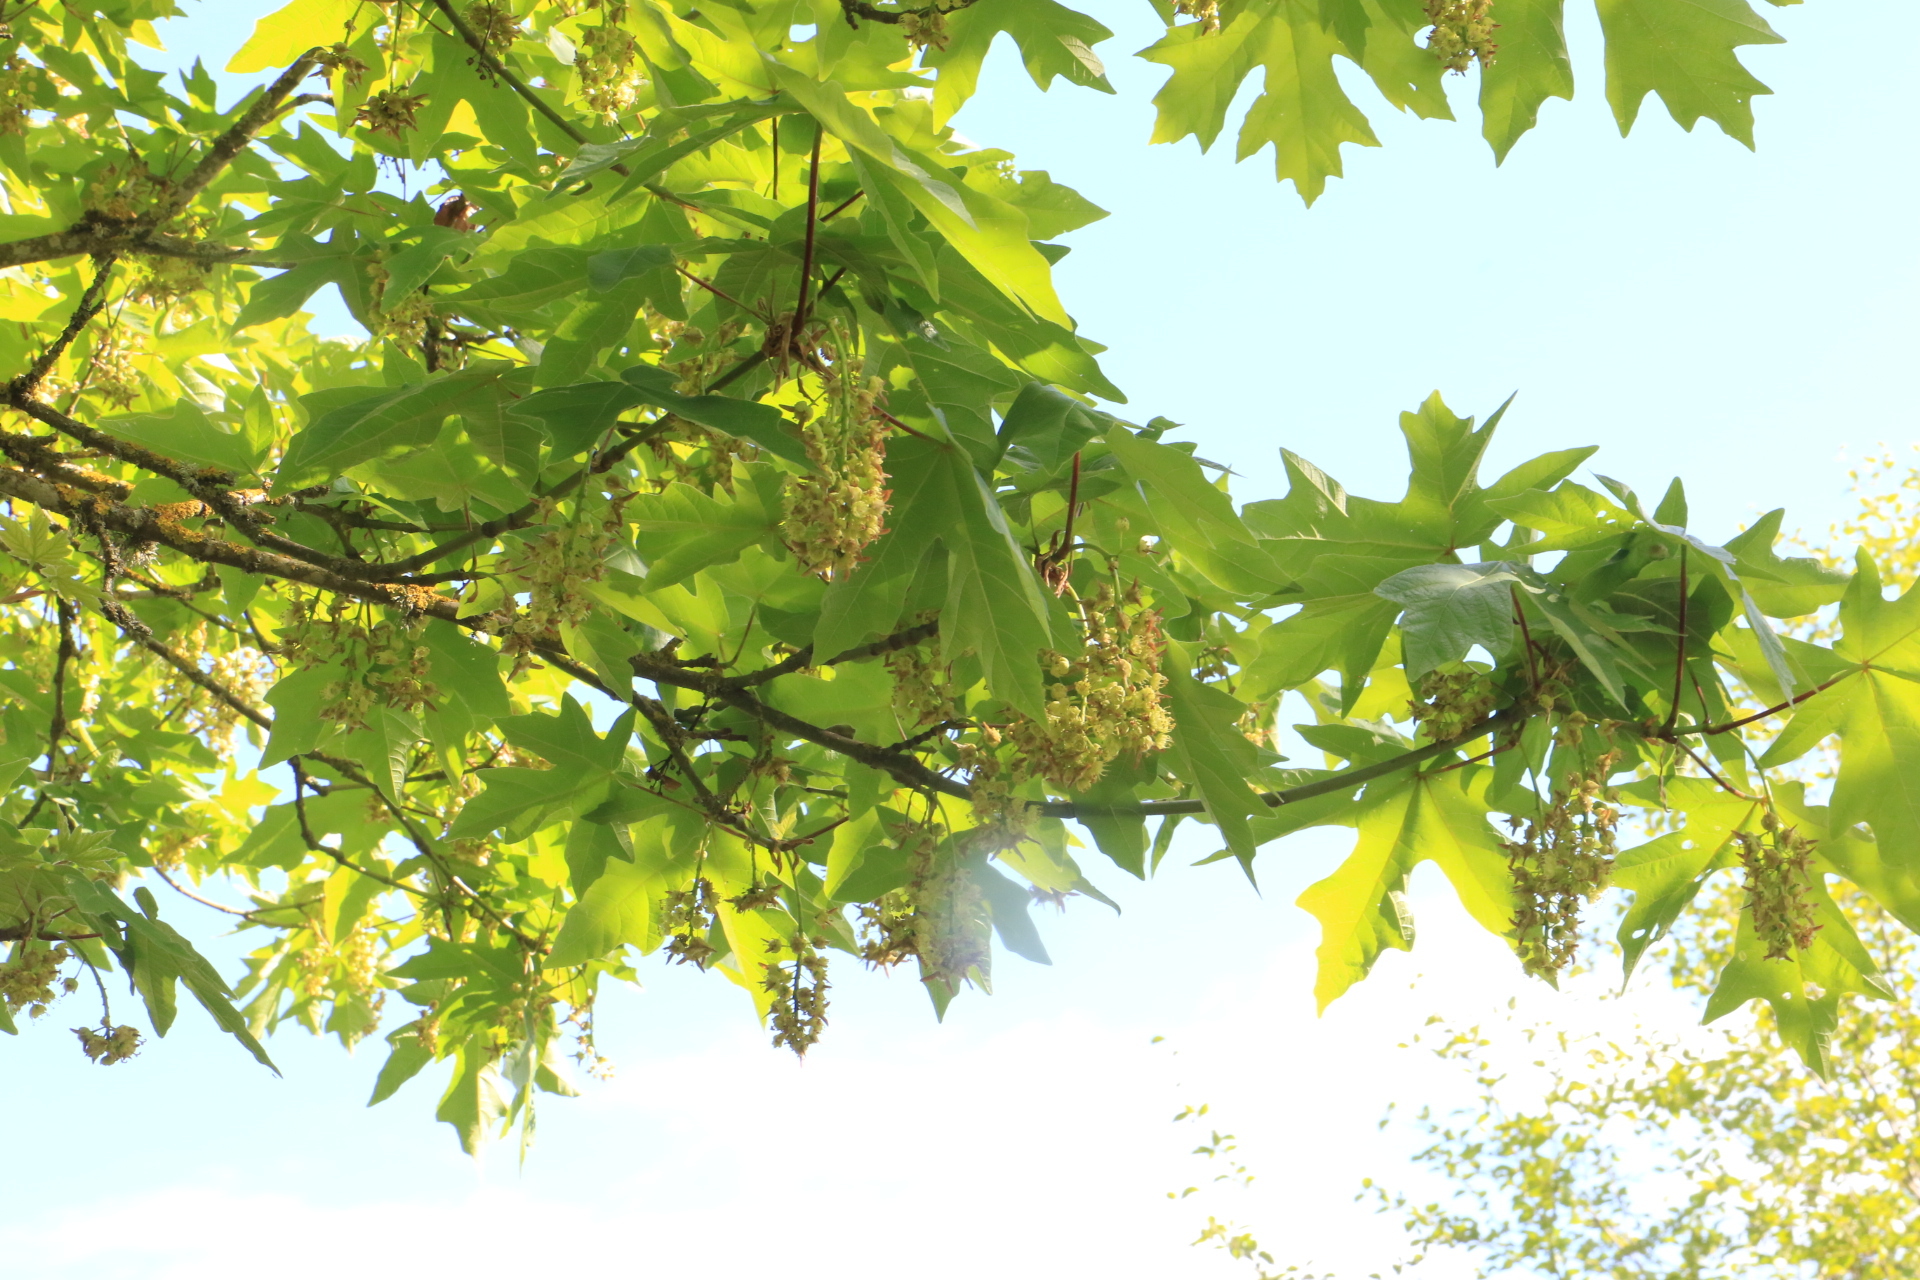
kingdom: Plantae
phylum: Tracheophyta
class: Magnoliopsida
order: Sapindales
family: Sapindaceae
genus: Acer
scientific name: Acer macrophyllum
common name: Oregon maple
